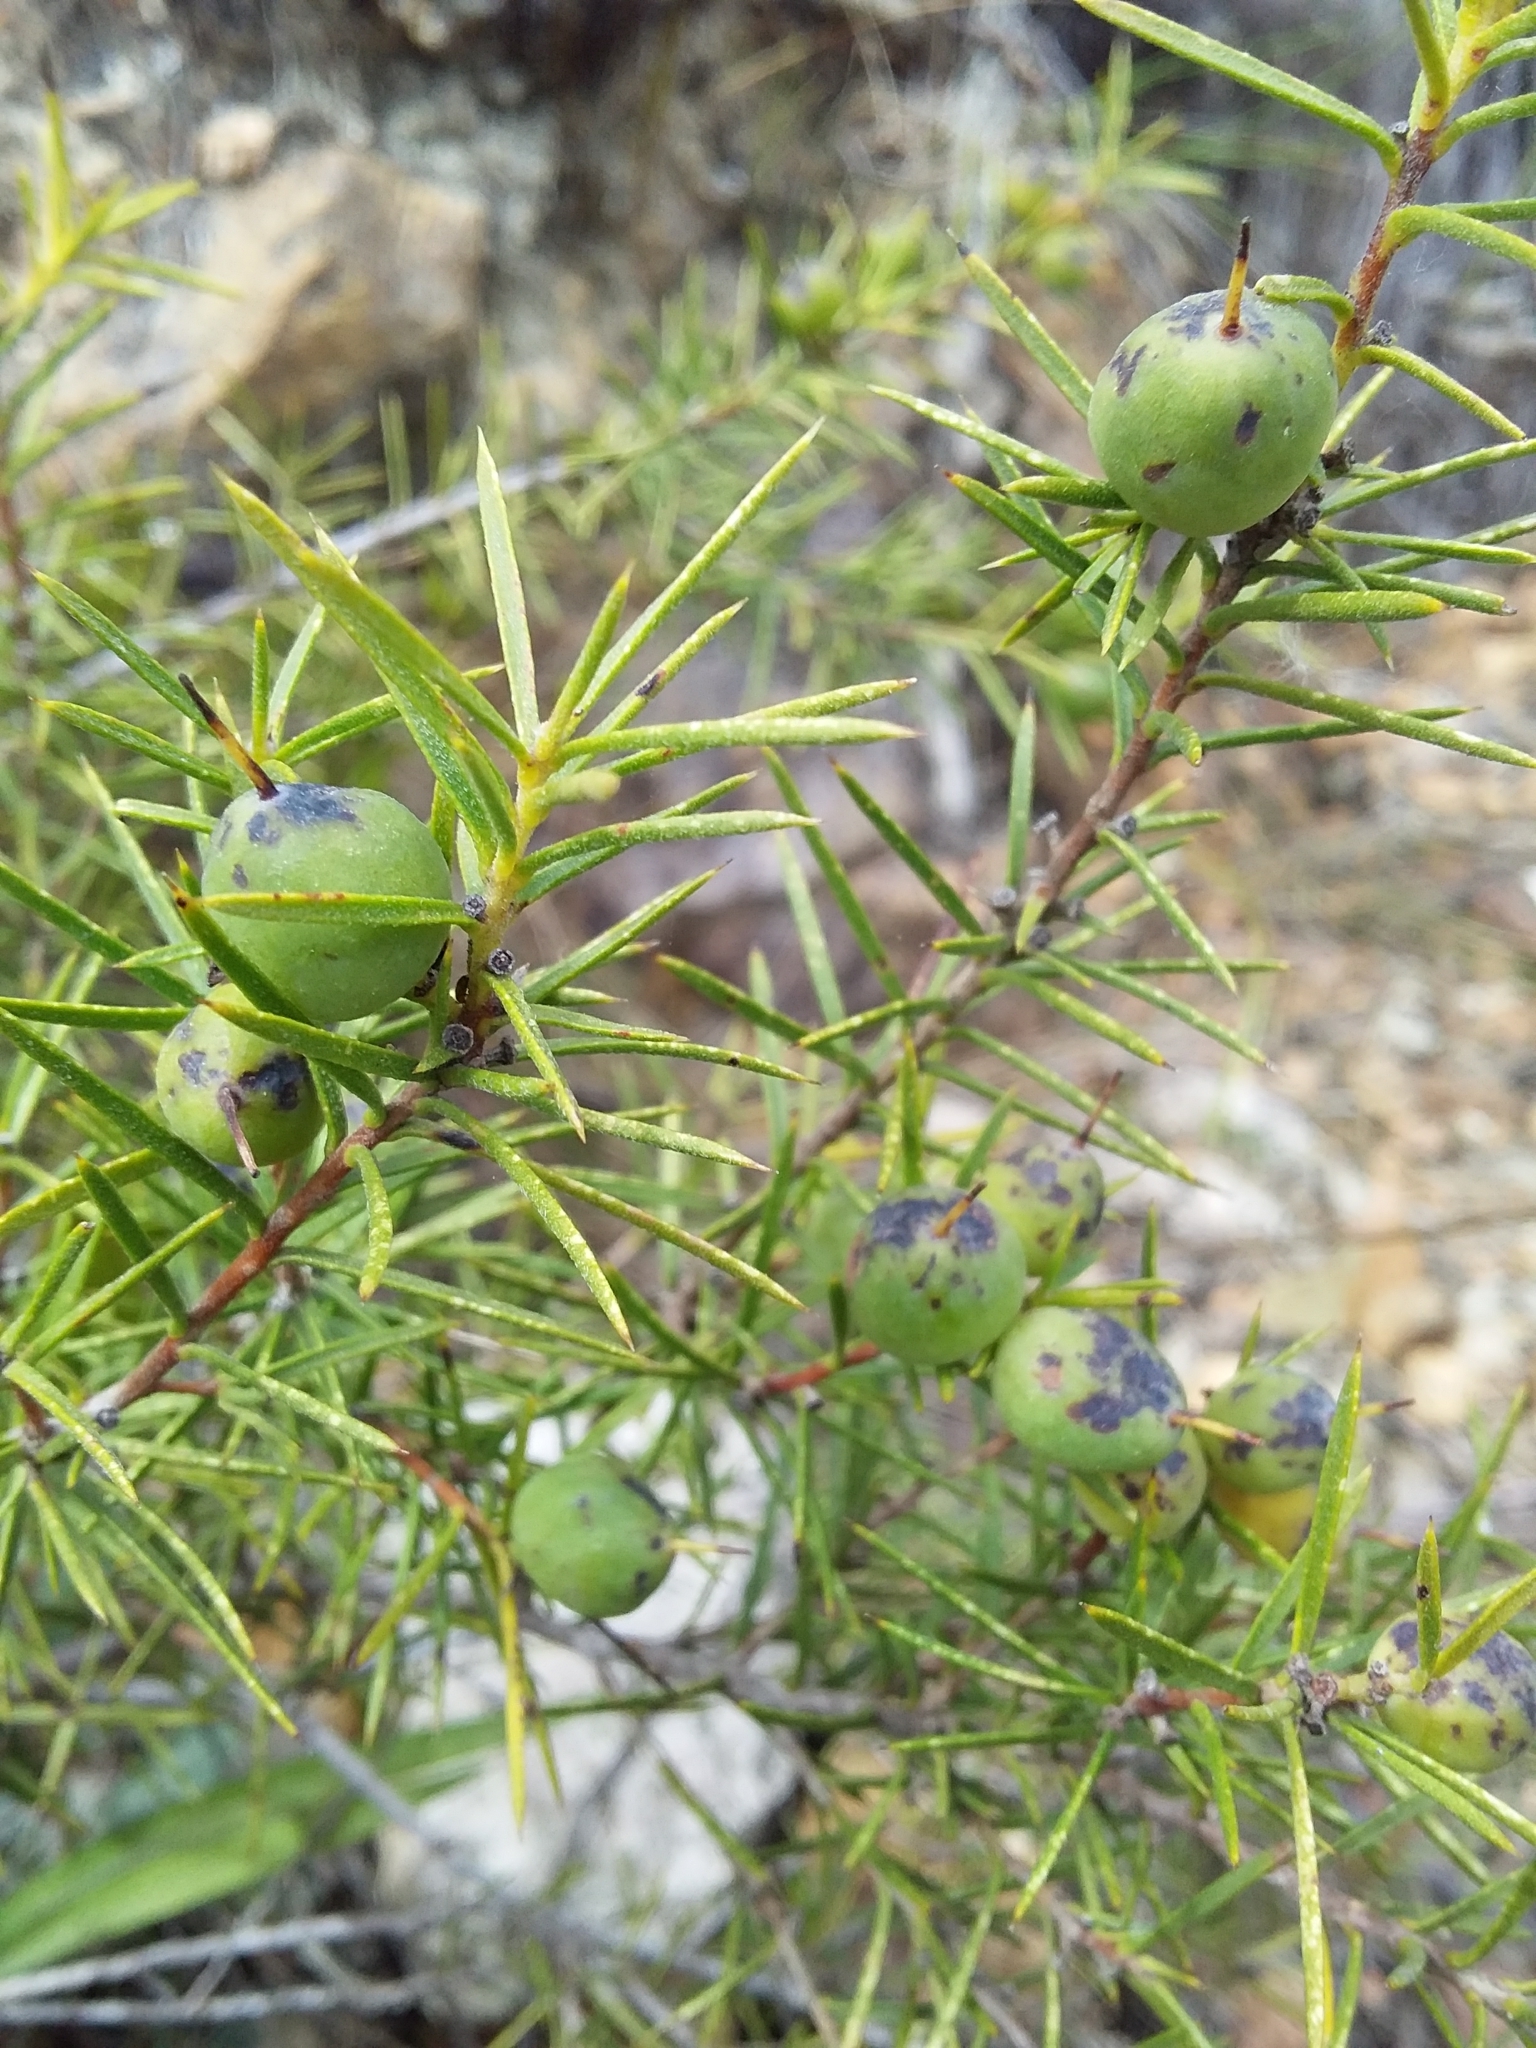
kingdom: Plantae
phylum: Tracheophyta
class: Magnoliopsida
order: Proteales
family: Proteaceae
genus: Persoonia
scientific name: Persoonia juniperina
